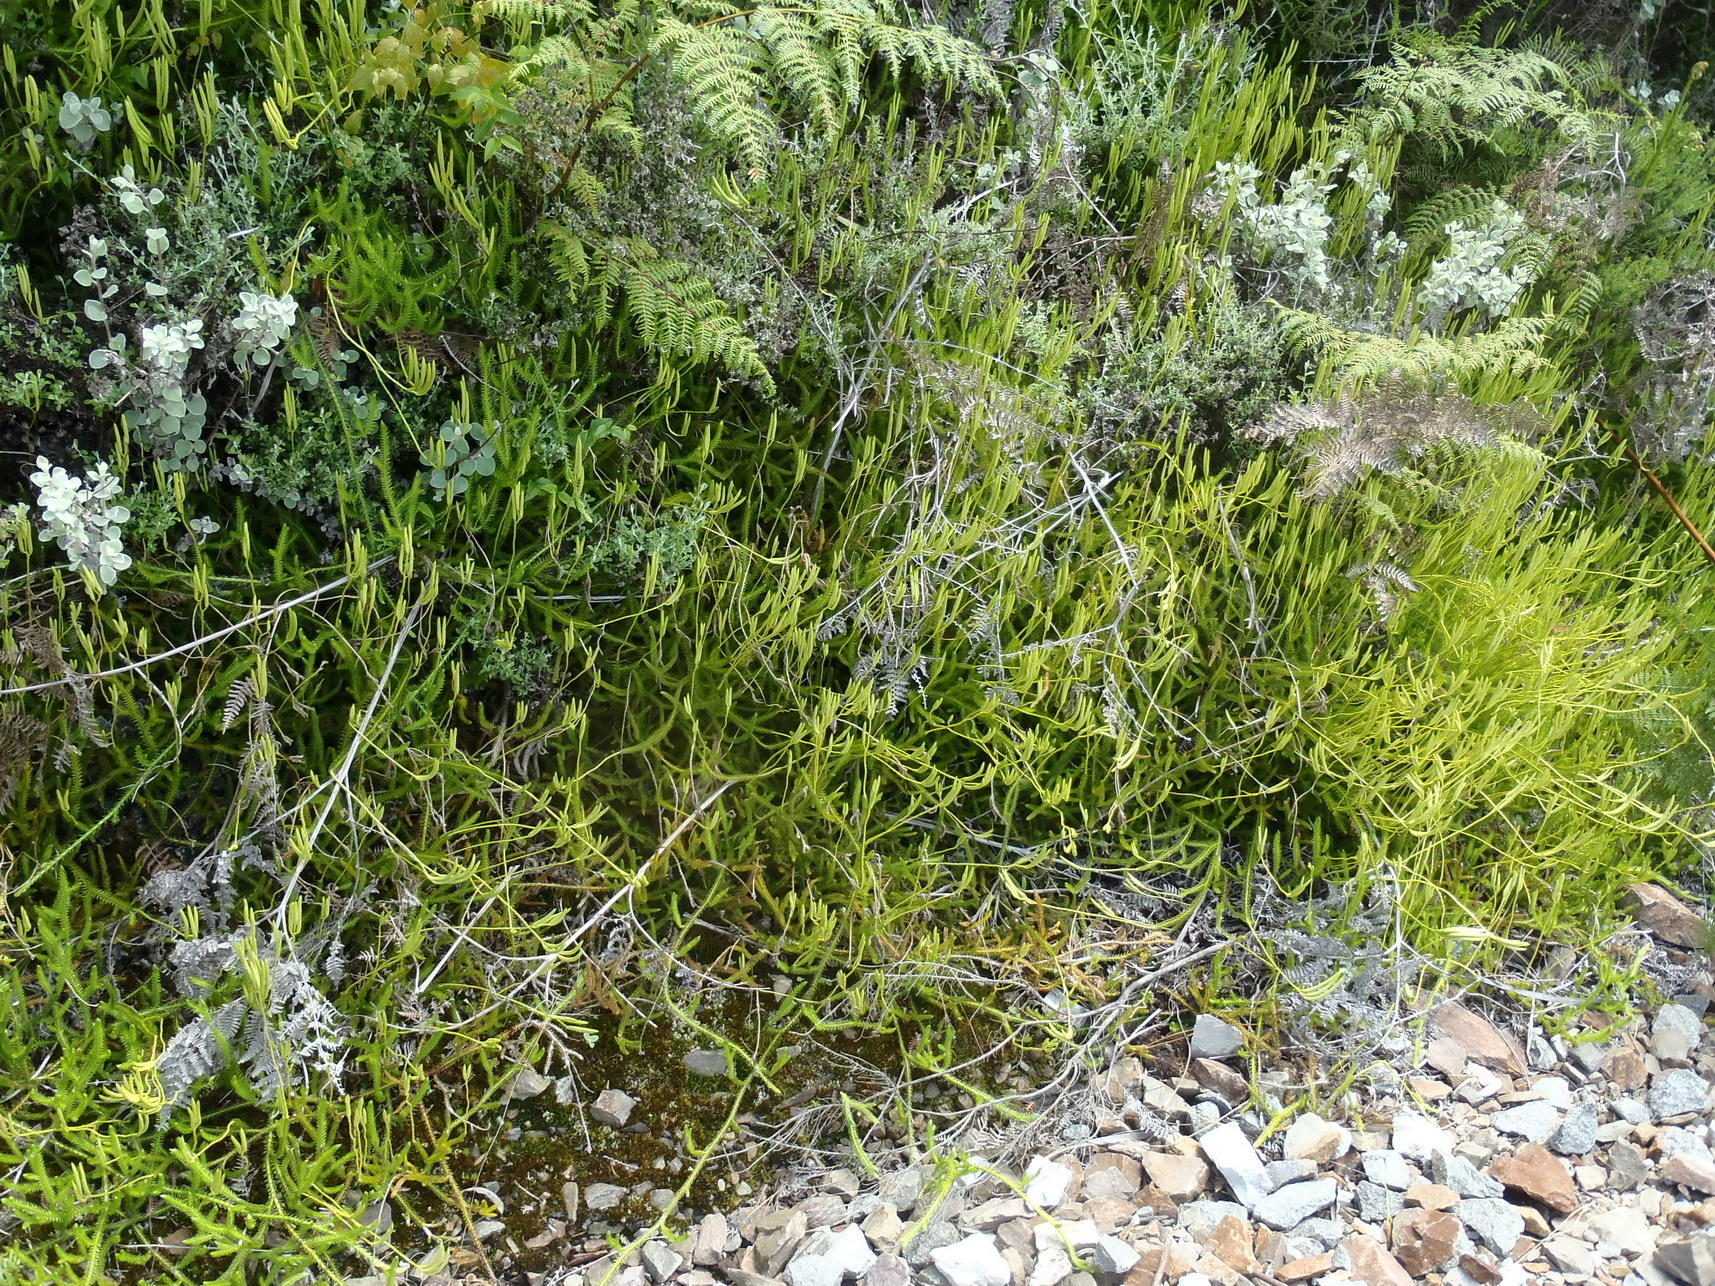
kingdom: Plantae
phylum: Tracheophyta
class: Lycopodiopsida
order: Lycopodiales
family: Lycopodiaceae
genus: Lycopodium
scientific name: Lycopodium clavatum
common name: Stag's-horn clubmoss
